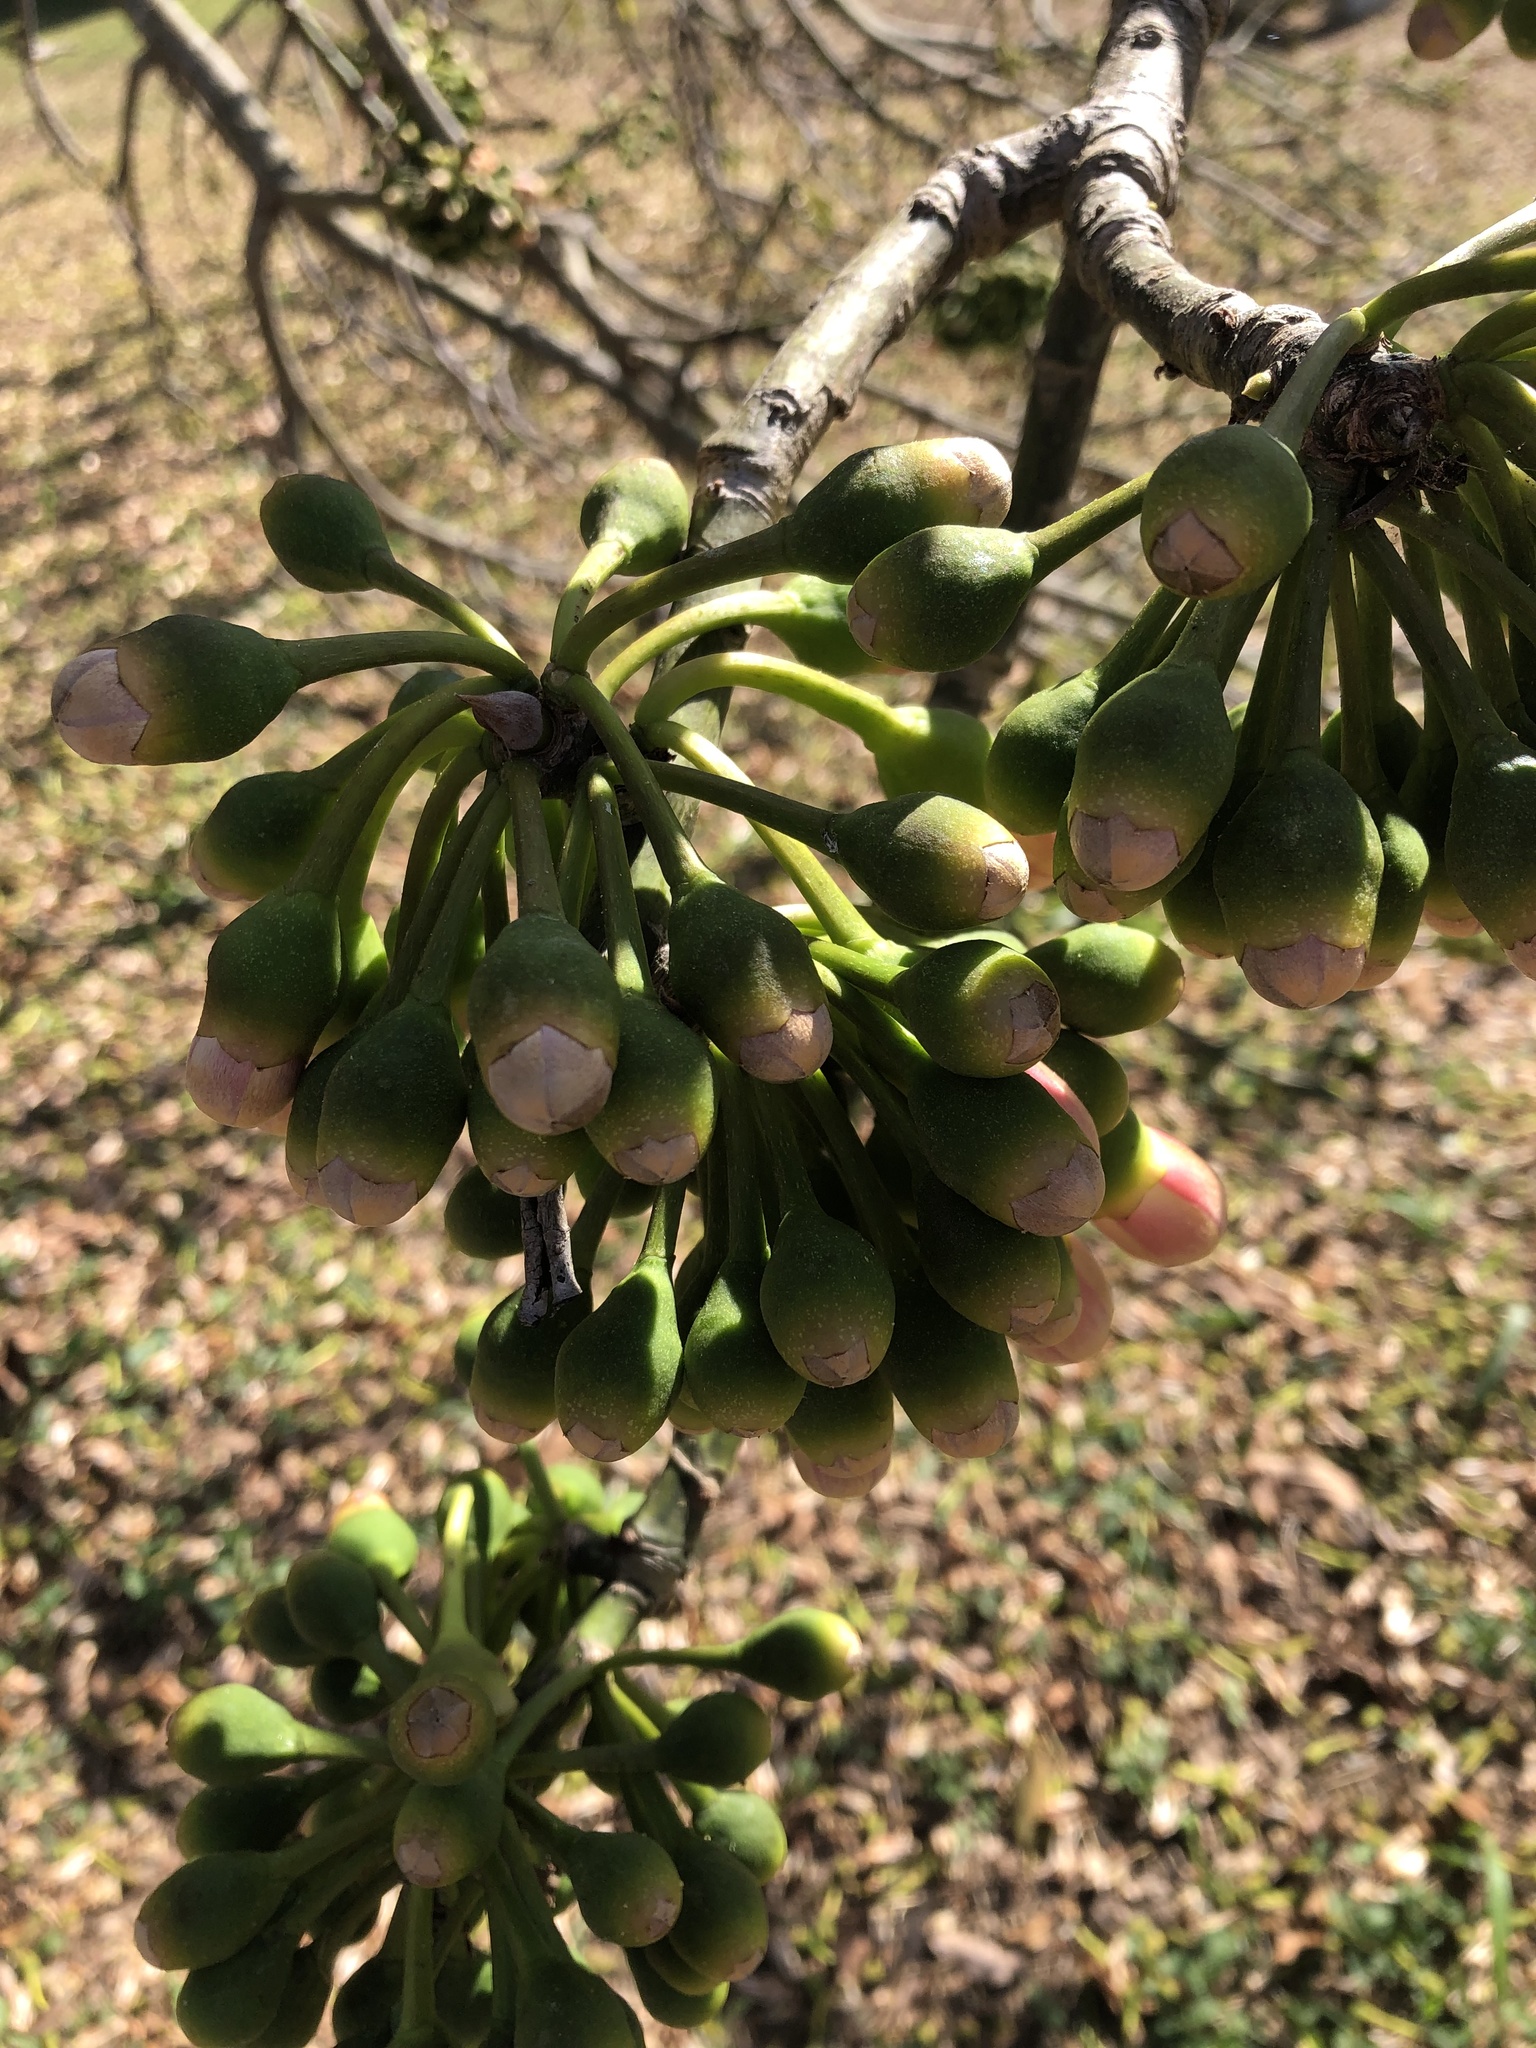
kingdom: Plantae
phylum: Tracheophyta
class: Magnoliopsida
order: Malvales
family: Malvaceae
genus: Ceiba
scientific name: Ceiba pentandra
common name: Kapok
